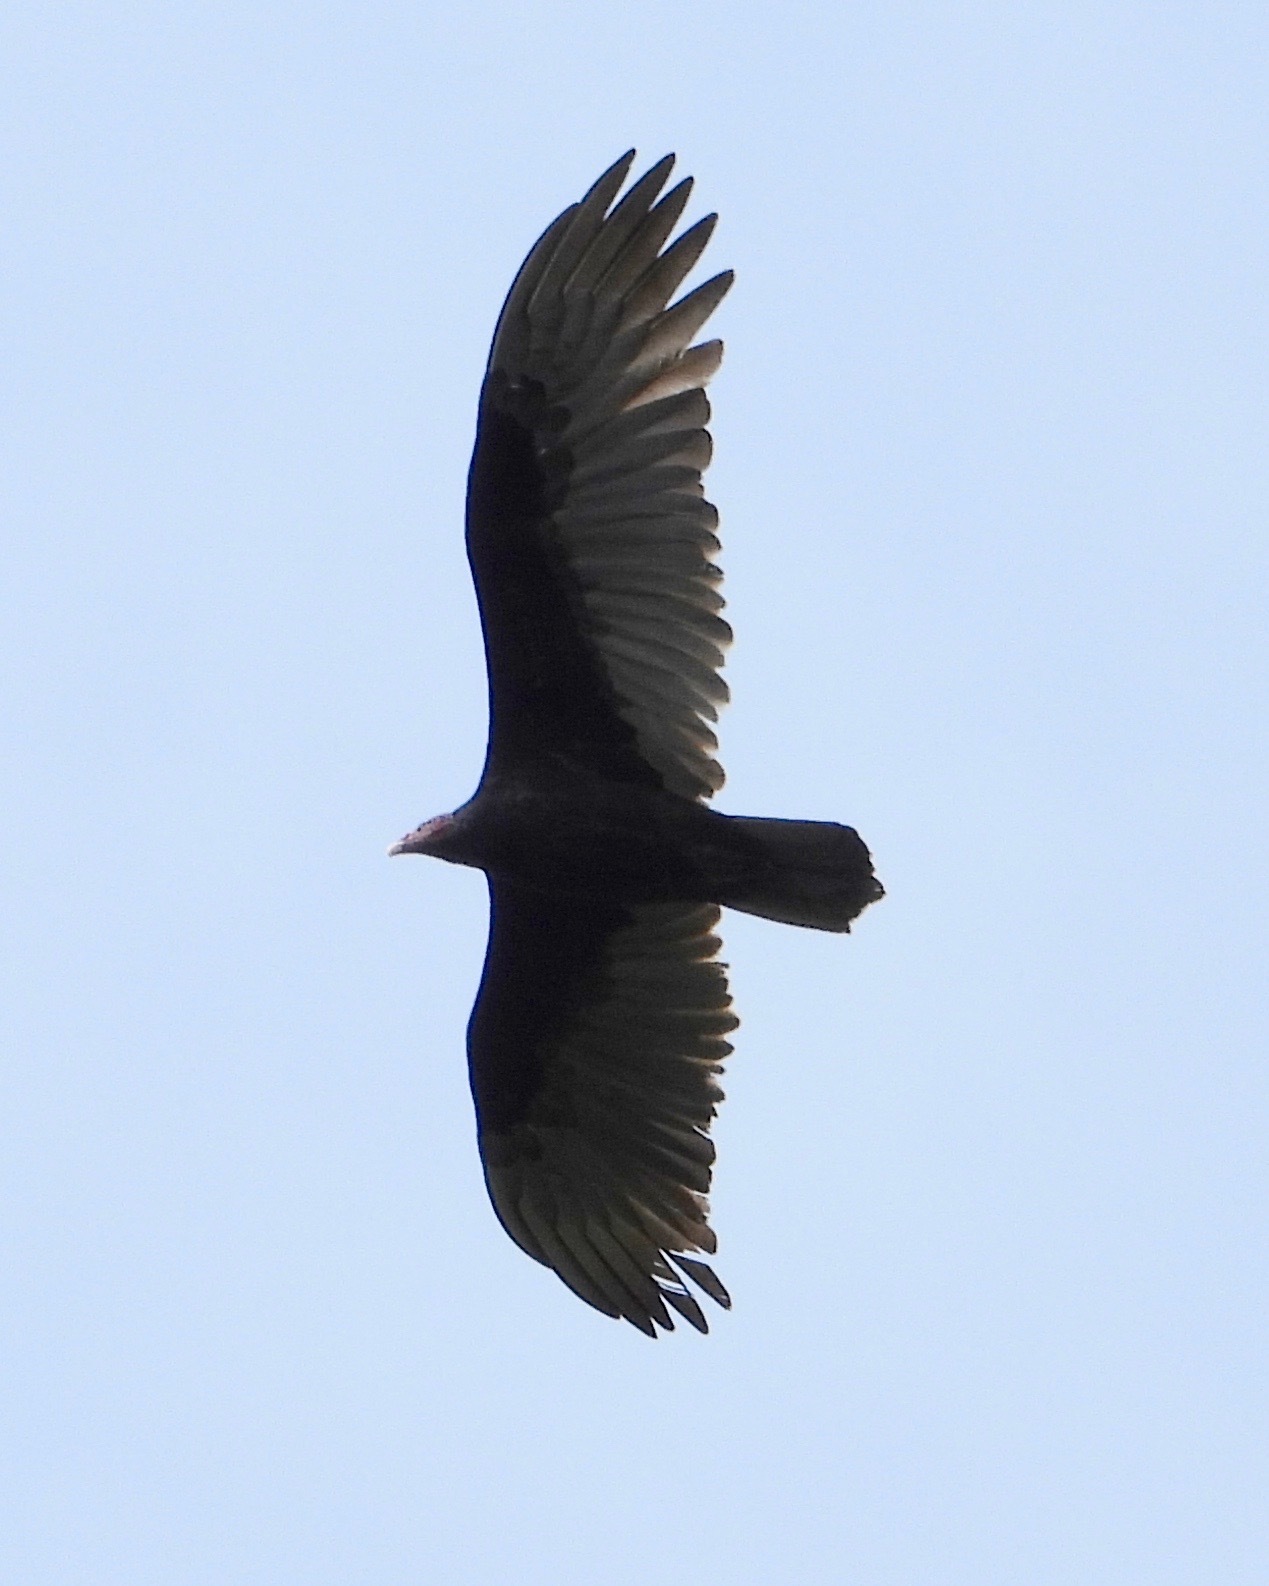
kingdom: Animalia
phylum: Chordata
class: Aves
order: Accipitriformes
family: Cathartidae
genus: Cathartes
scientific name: Cathartes aura
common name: Turkey vulture
